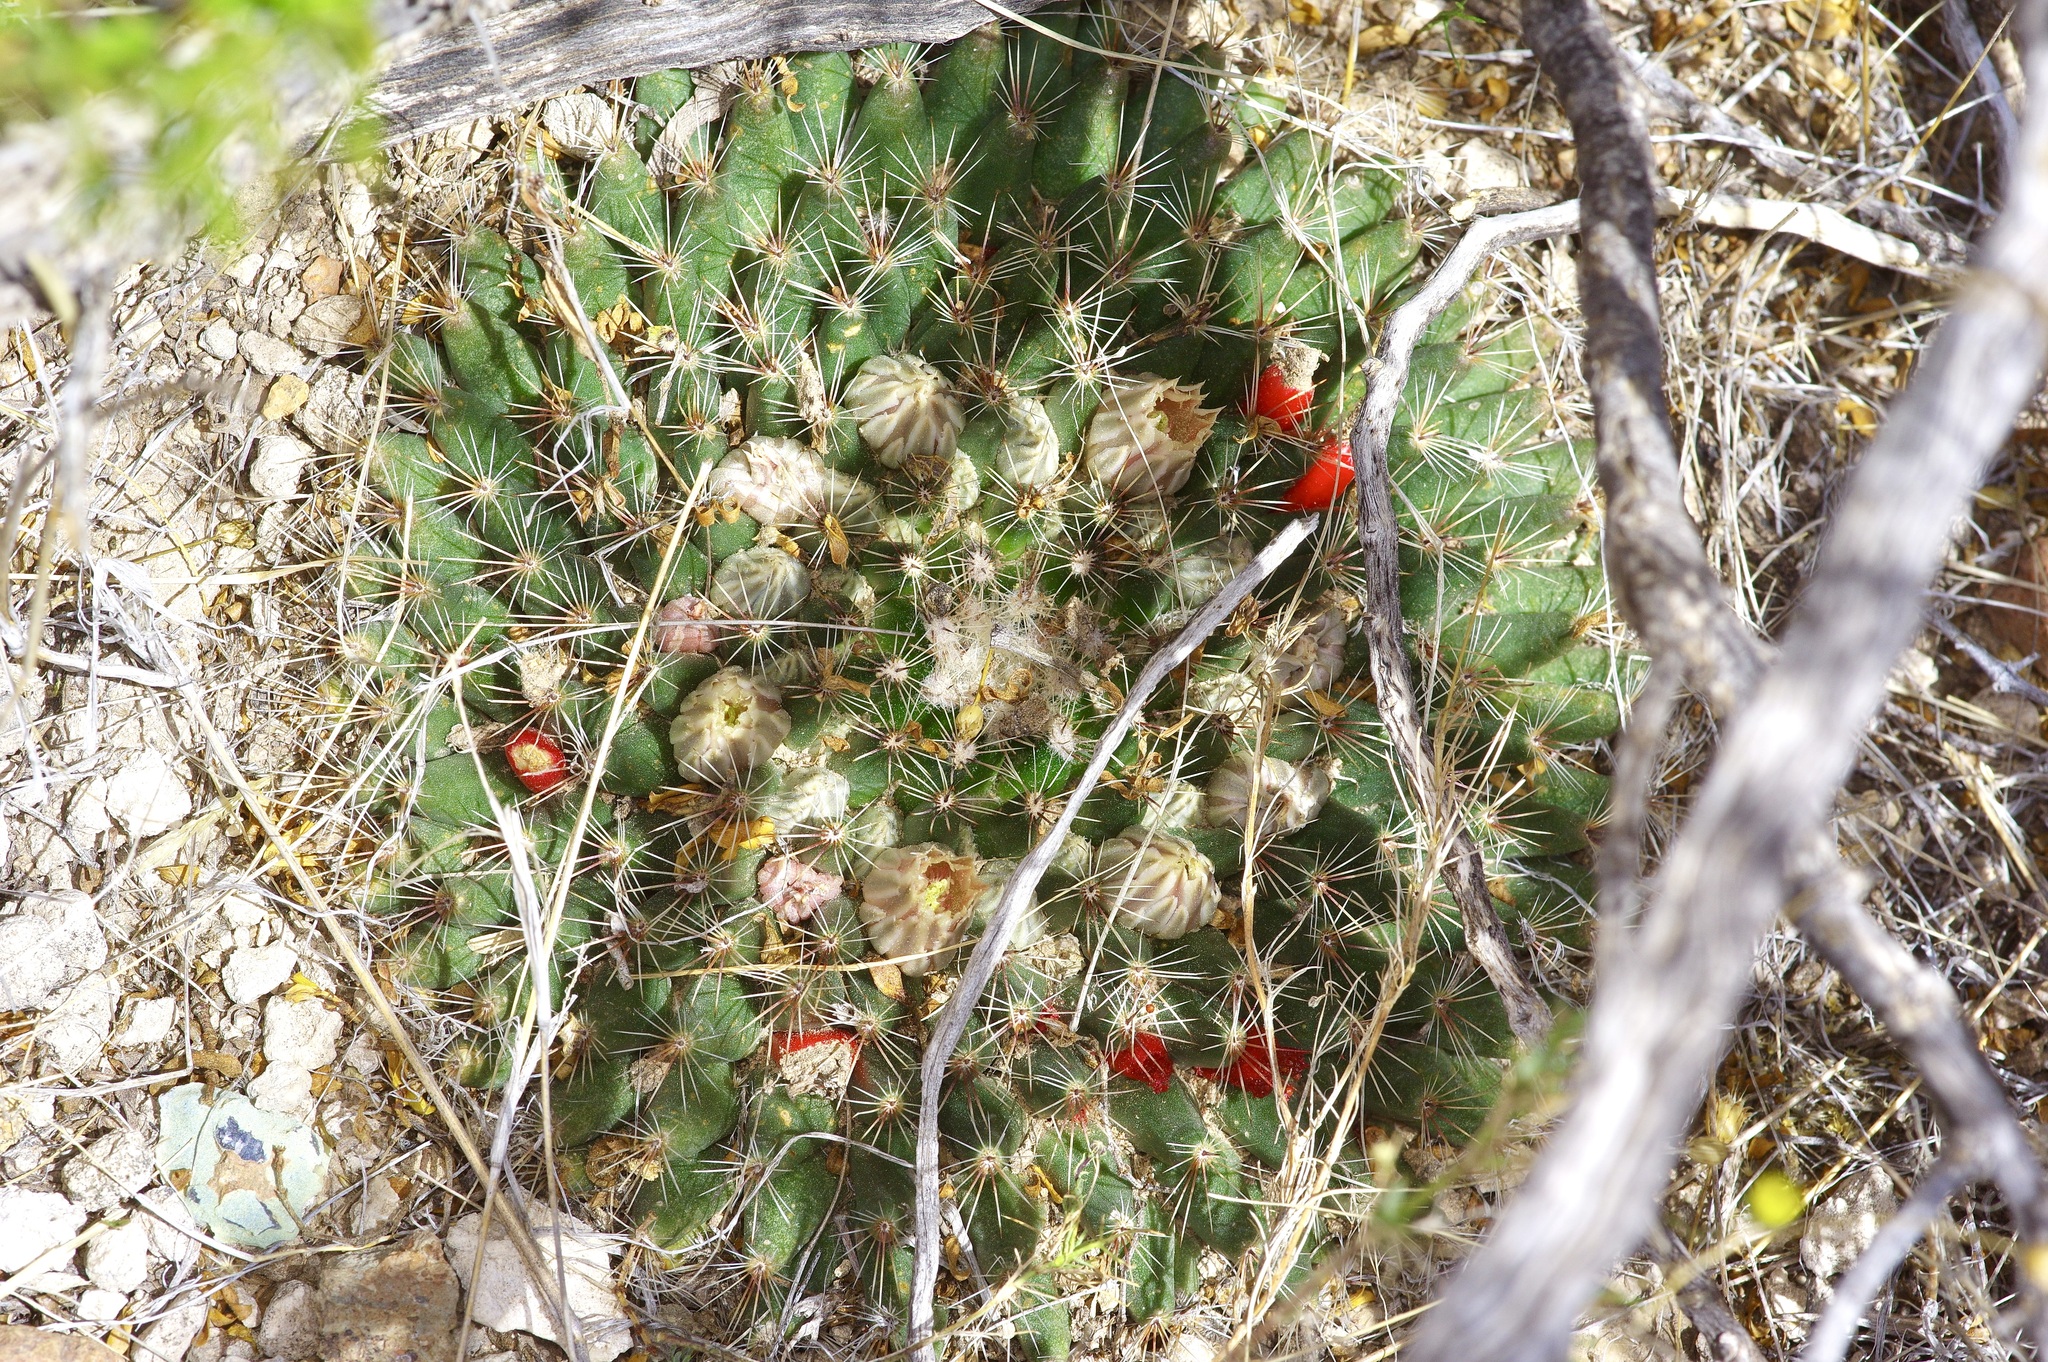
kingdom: Plantae
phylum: Tracheophyta
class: Magnoliopsida
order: Caryophyllales
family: Cactaceae
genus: Mammillaria
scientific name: Mammillaria heyderi
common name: Little nipple cactus
